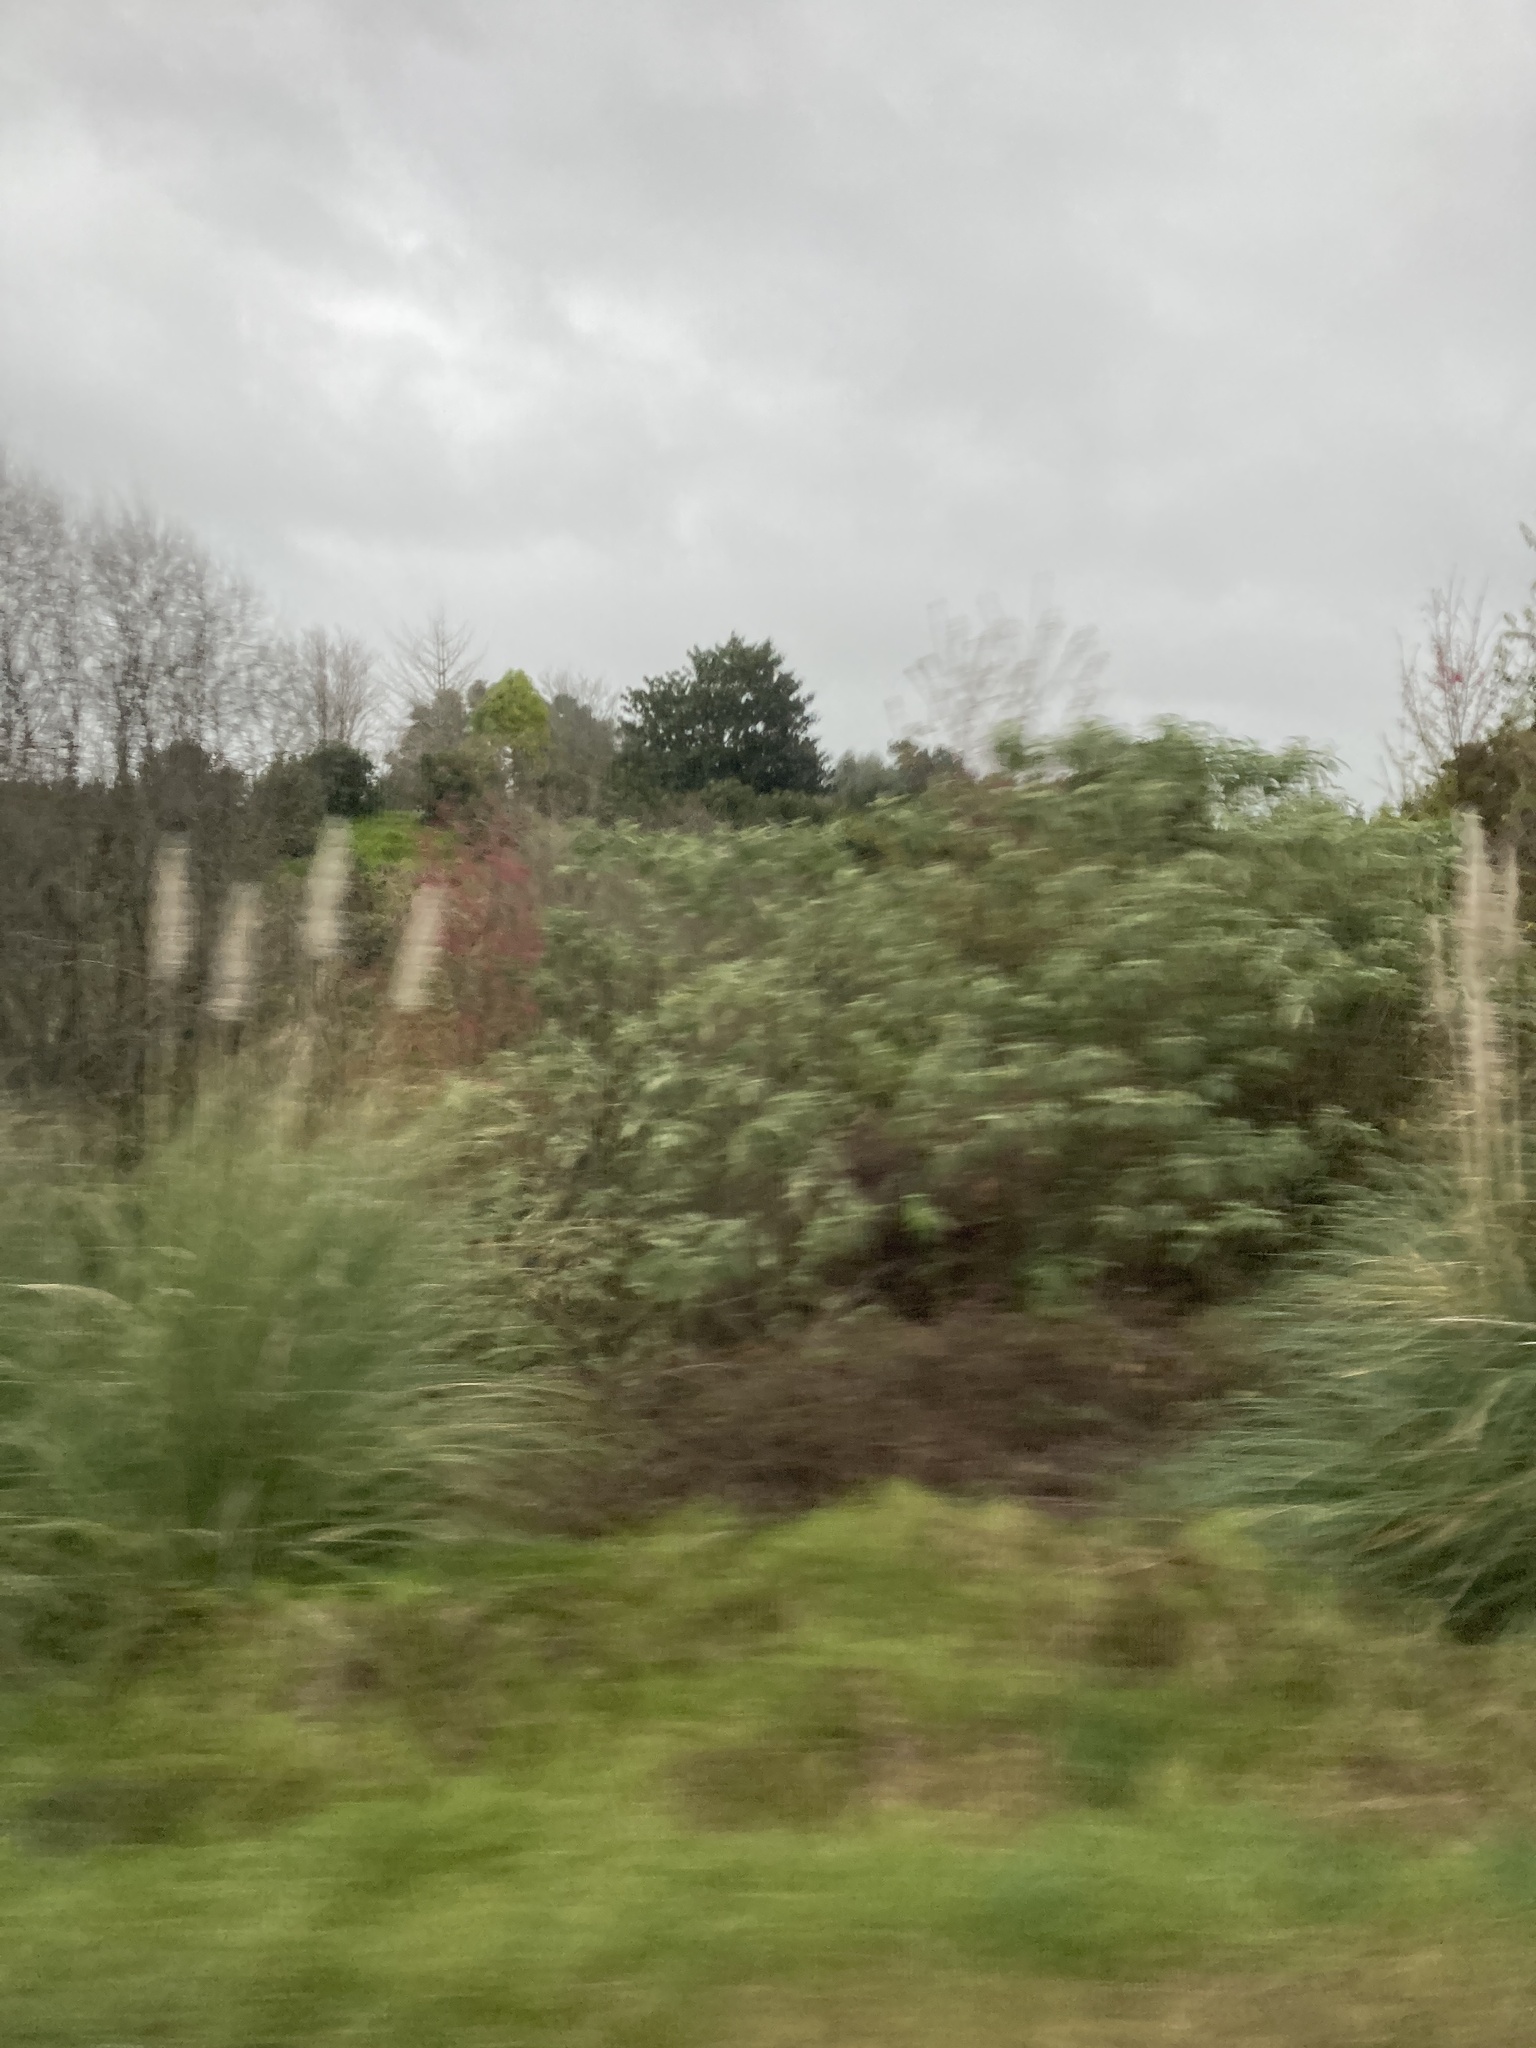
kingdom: Plantae
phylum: Tracheophyta
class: Magnoliopsida
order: Solanales
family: Solanaceae
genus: Solanum
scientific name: Solanum mauritianum
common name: Earleaf nightshade
